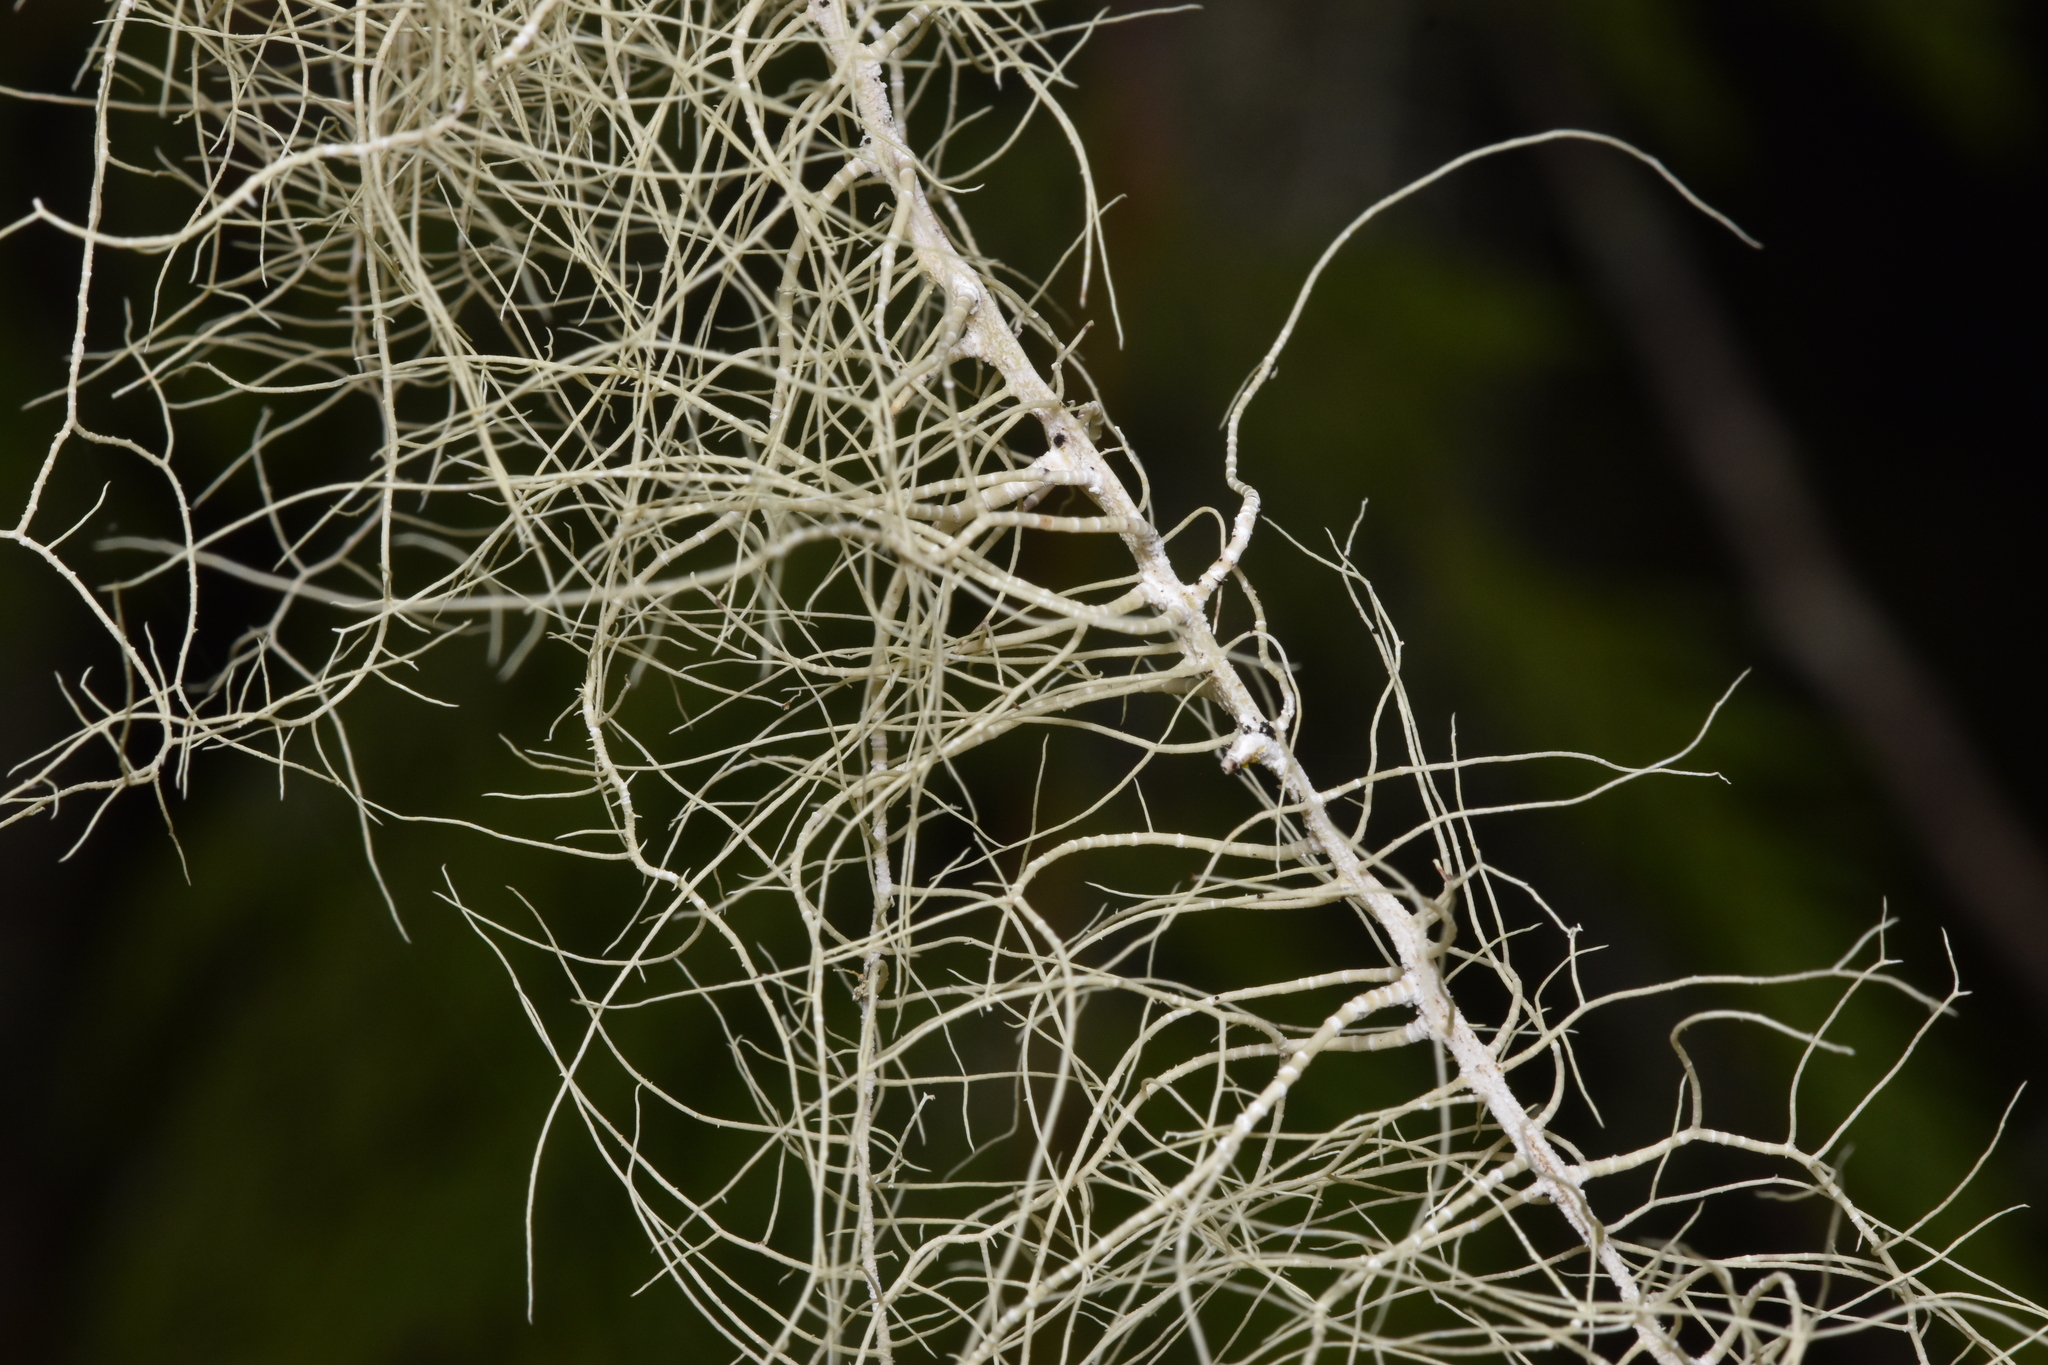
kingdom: Fungi
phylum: Ascomycota
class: Lecanoromycetes
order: Lecanorales
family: Parmeliaceae
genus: Dolichousnea
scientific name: Dolichousnea longissima
